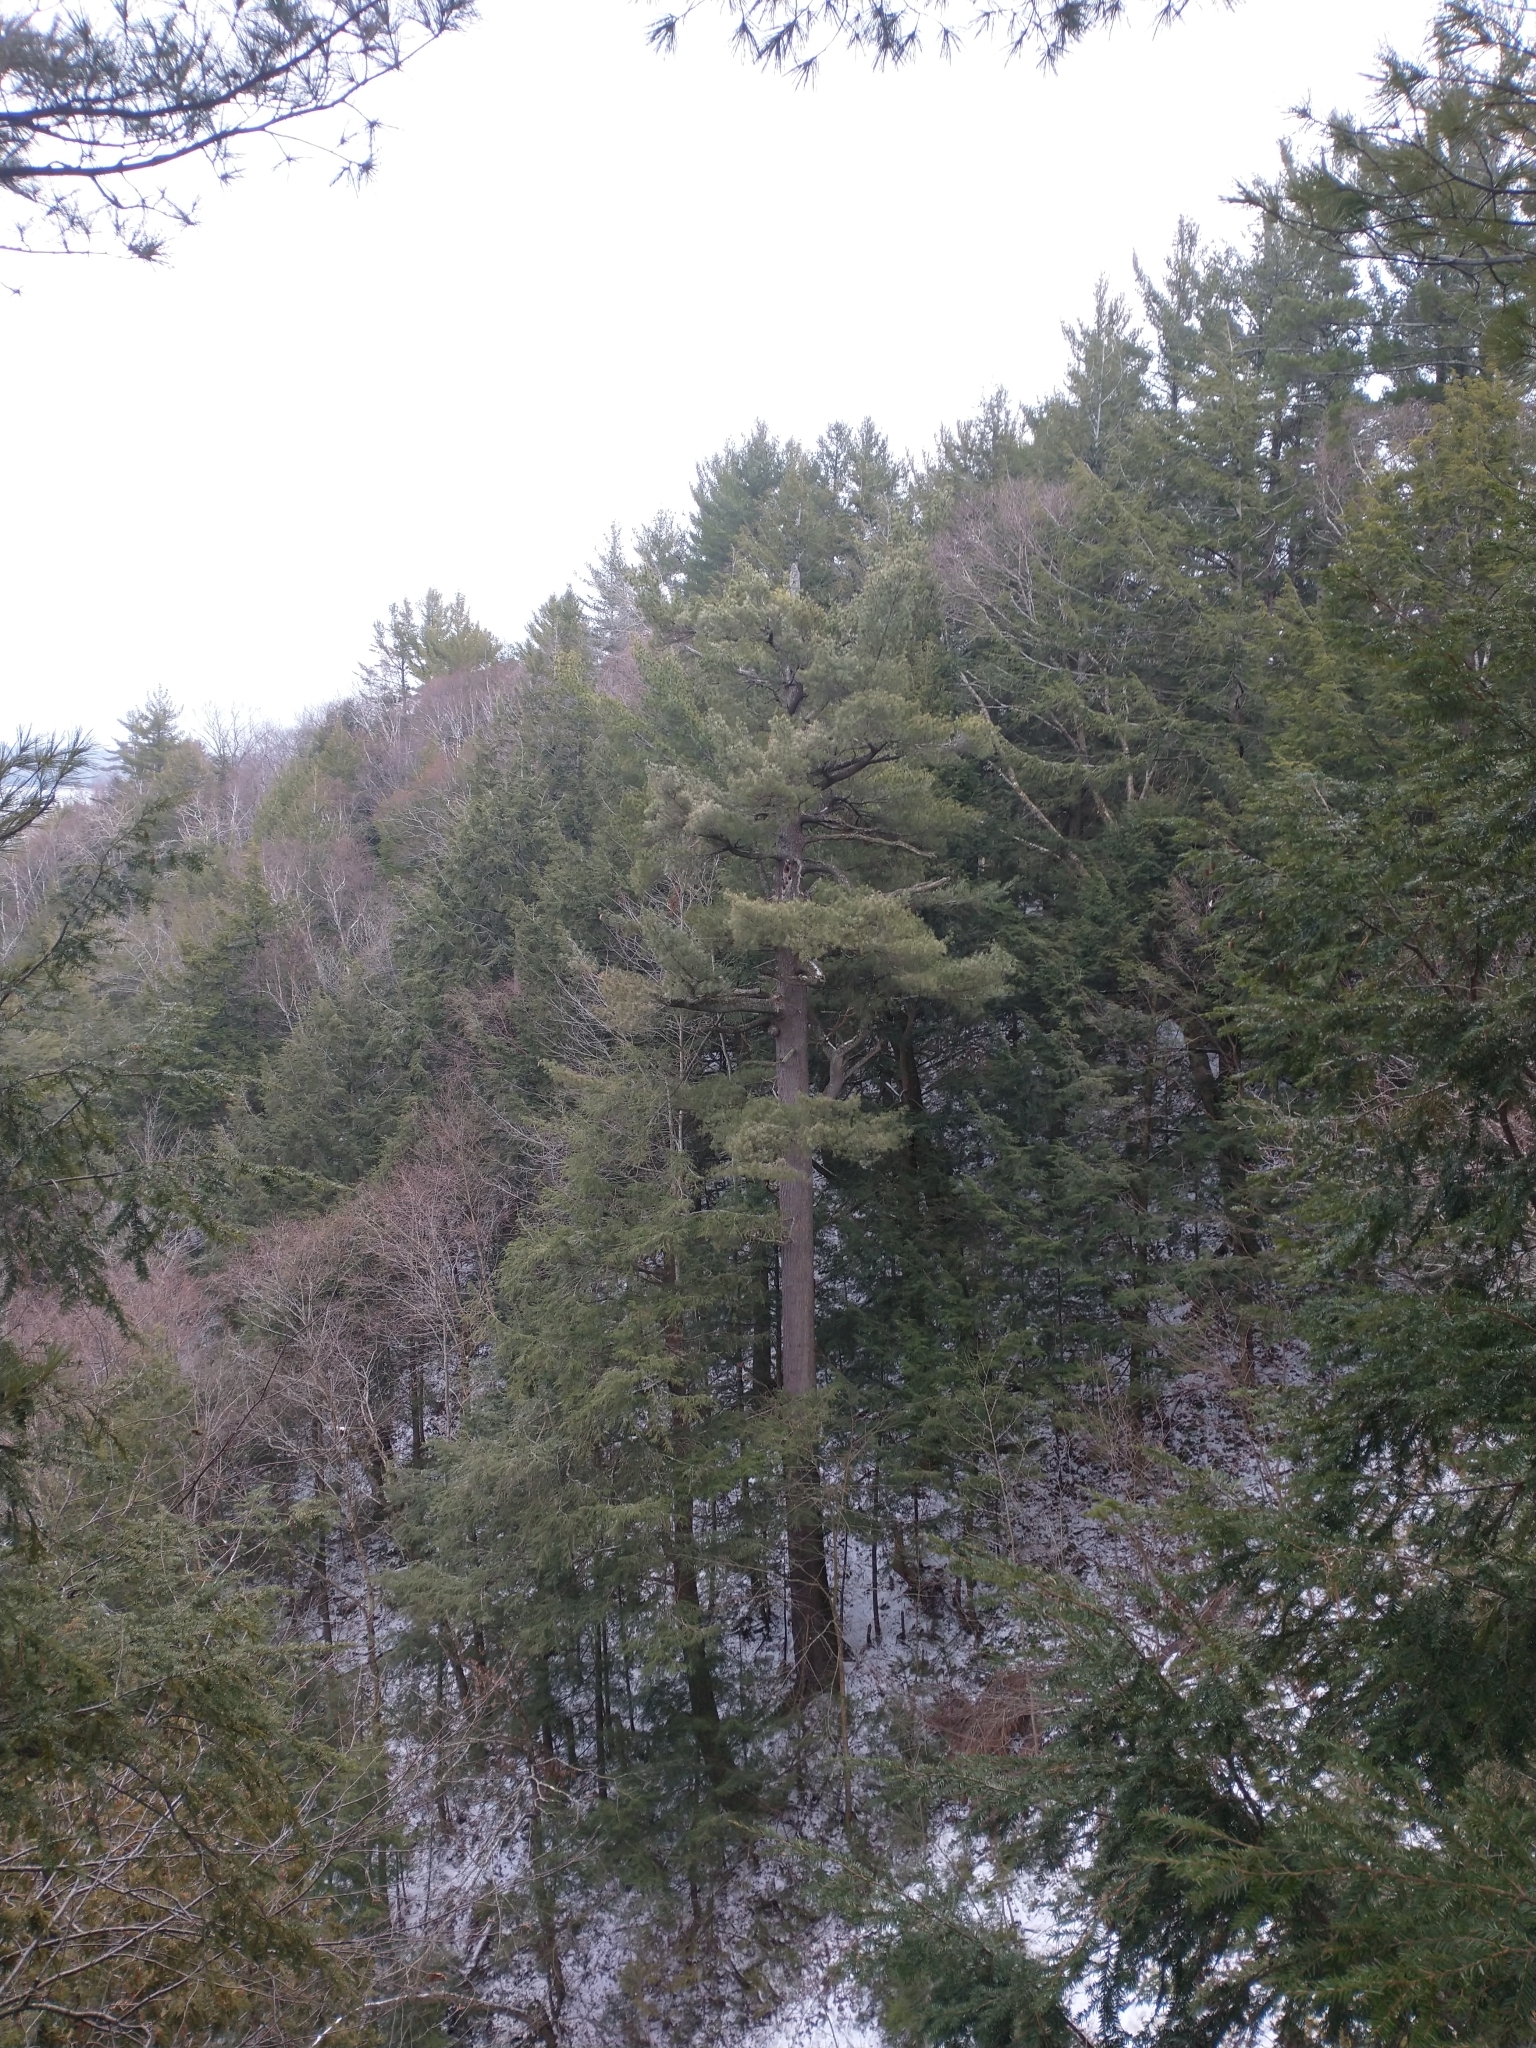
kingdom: Plantae
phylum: Tracheophyta
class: Pinopsida
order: Pinales
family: Pinaceae
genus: Pinus
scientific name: Pinus strobus
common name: Weymouth pine
